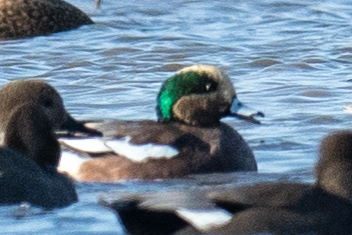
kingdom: Animalia
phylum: Chordata
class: Aves
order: Anseriformes
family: Anatidae
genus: Mareca
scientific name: Mareca americana
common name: American wigeon
